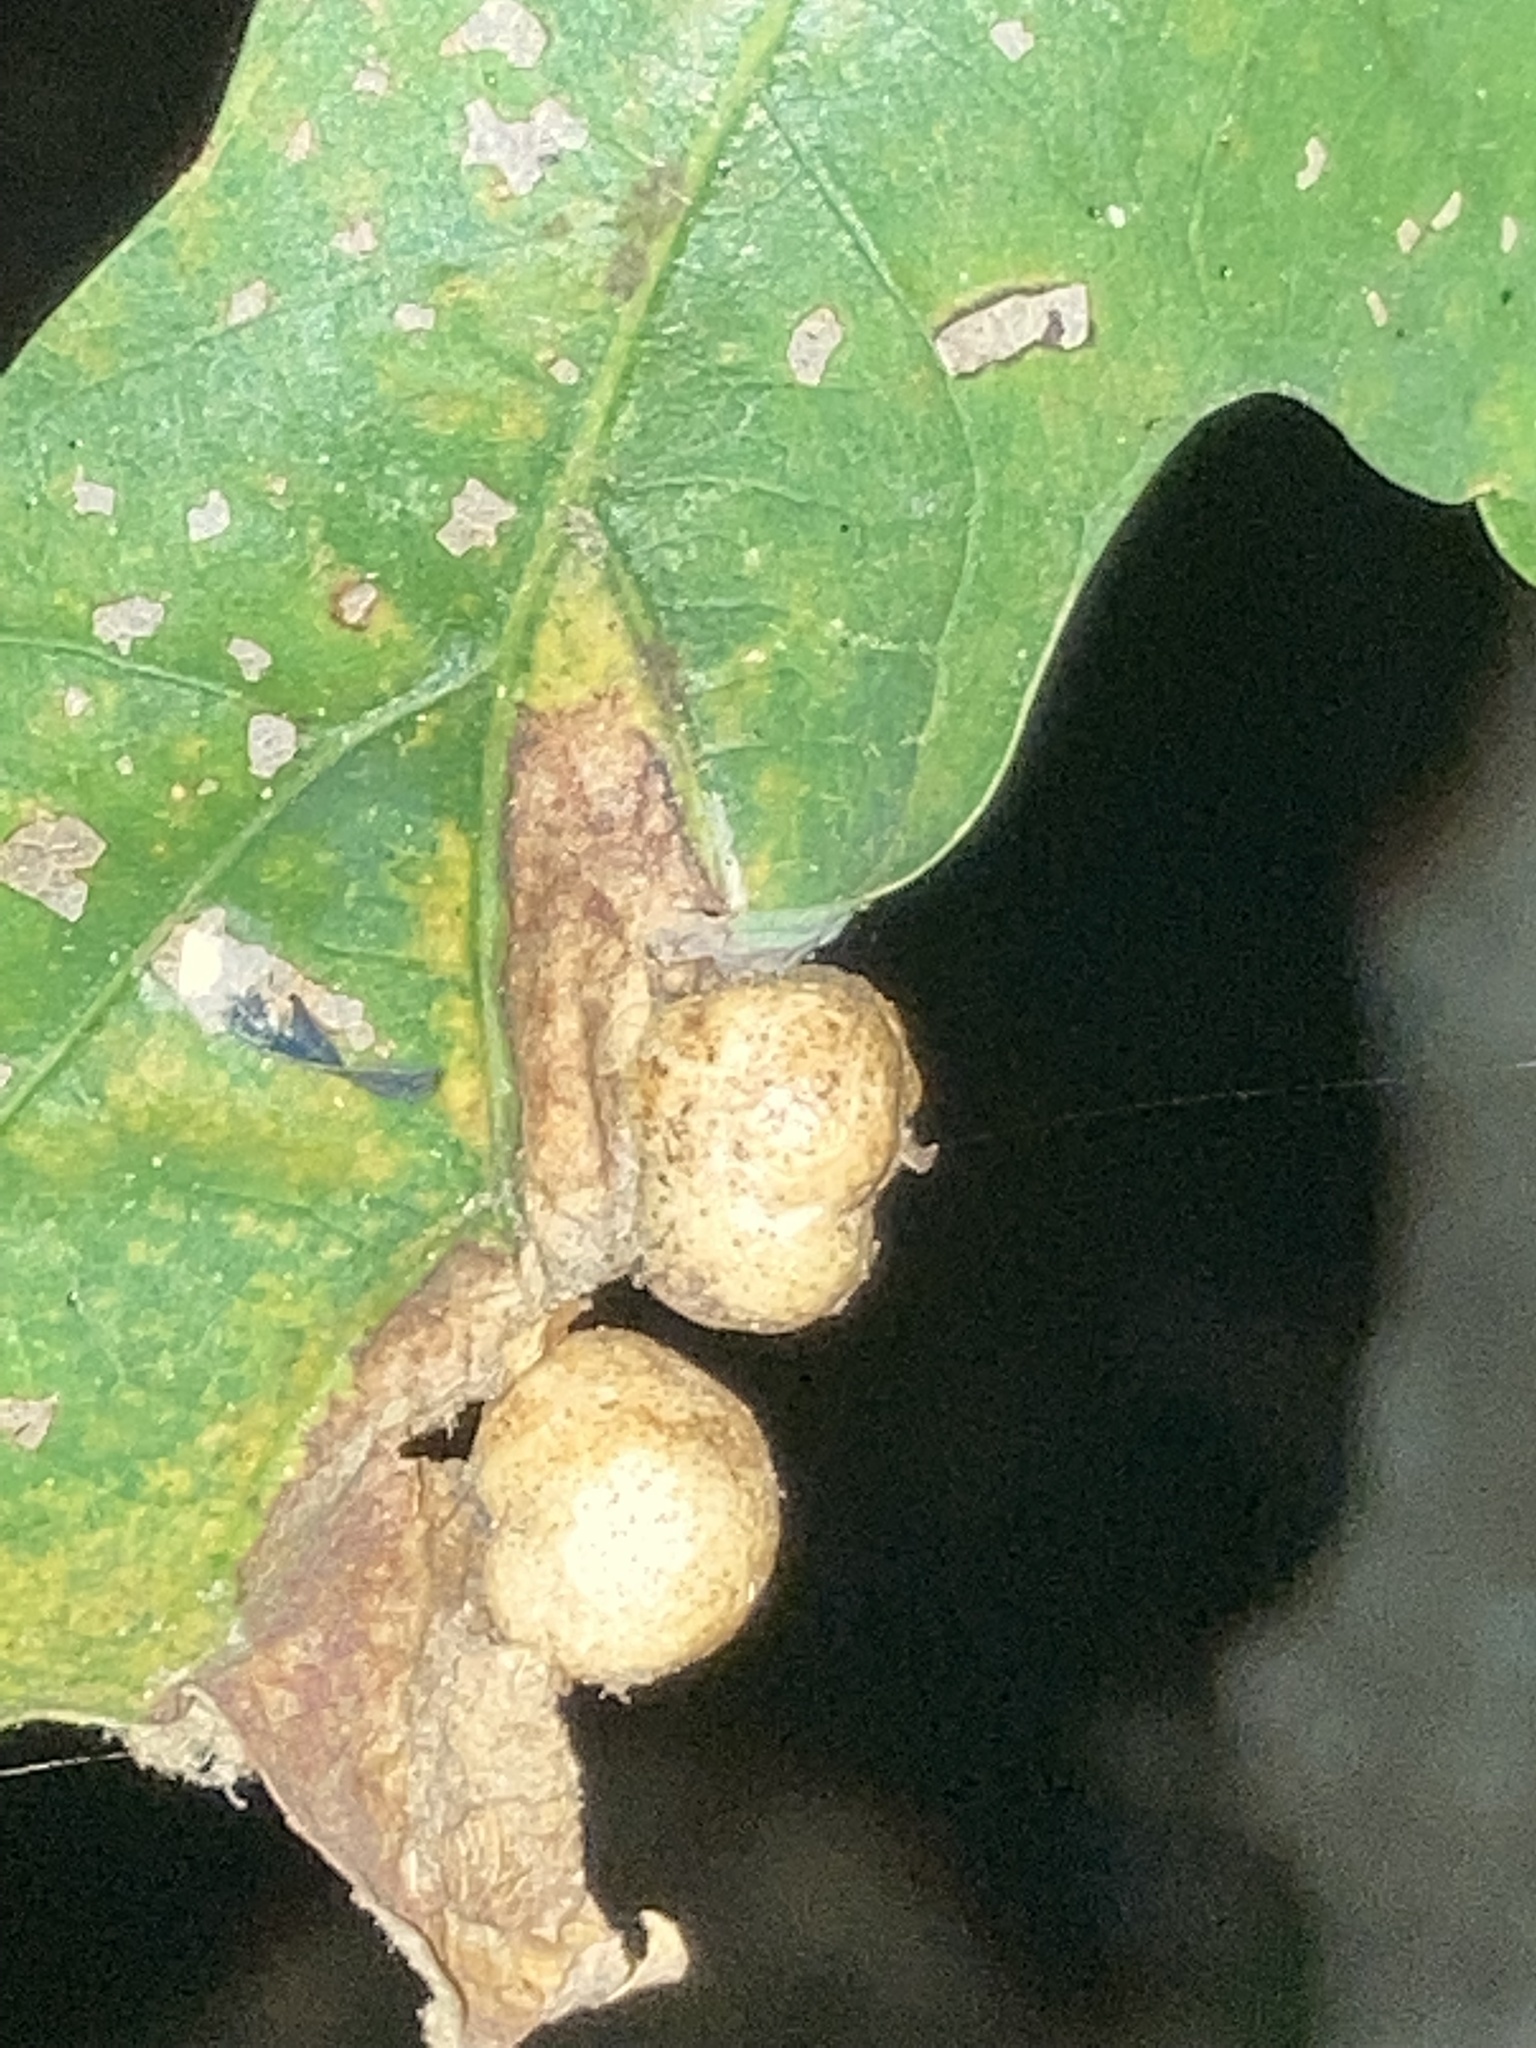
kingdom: Animalia
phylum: Arthropoda
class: Insecta
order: Hymenoptera
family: Cynipidae
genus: Callirhytis
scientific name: Callirhytis
